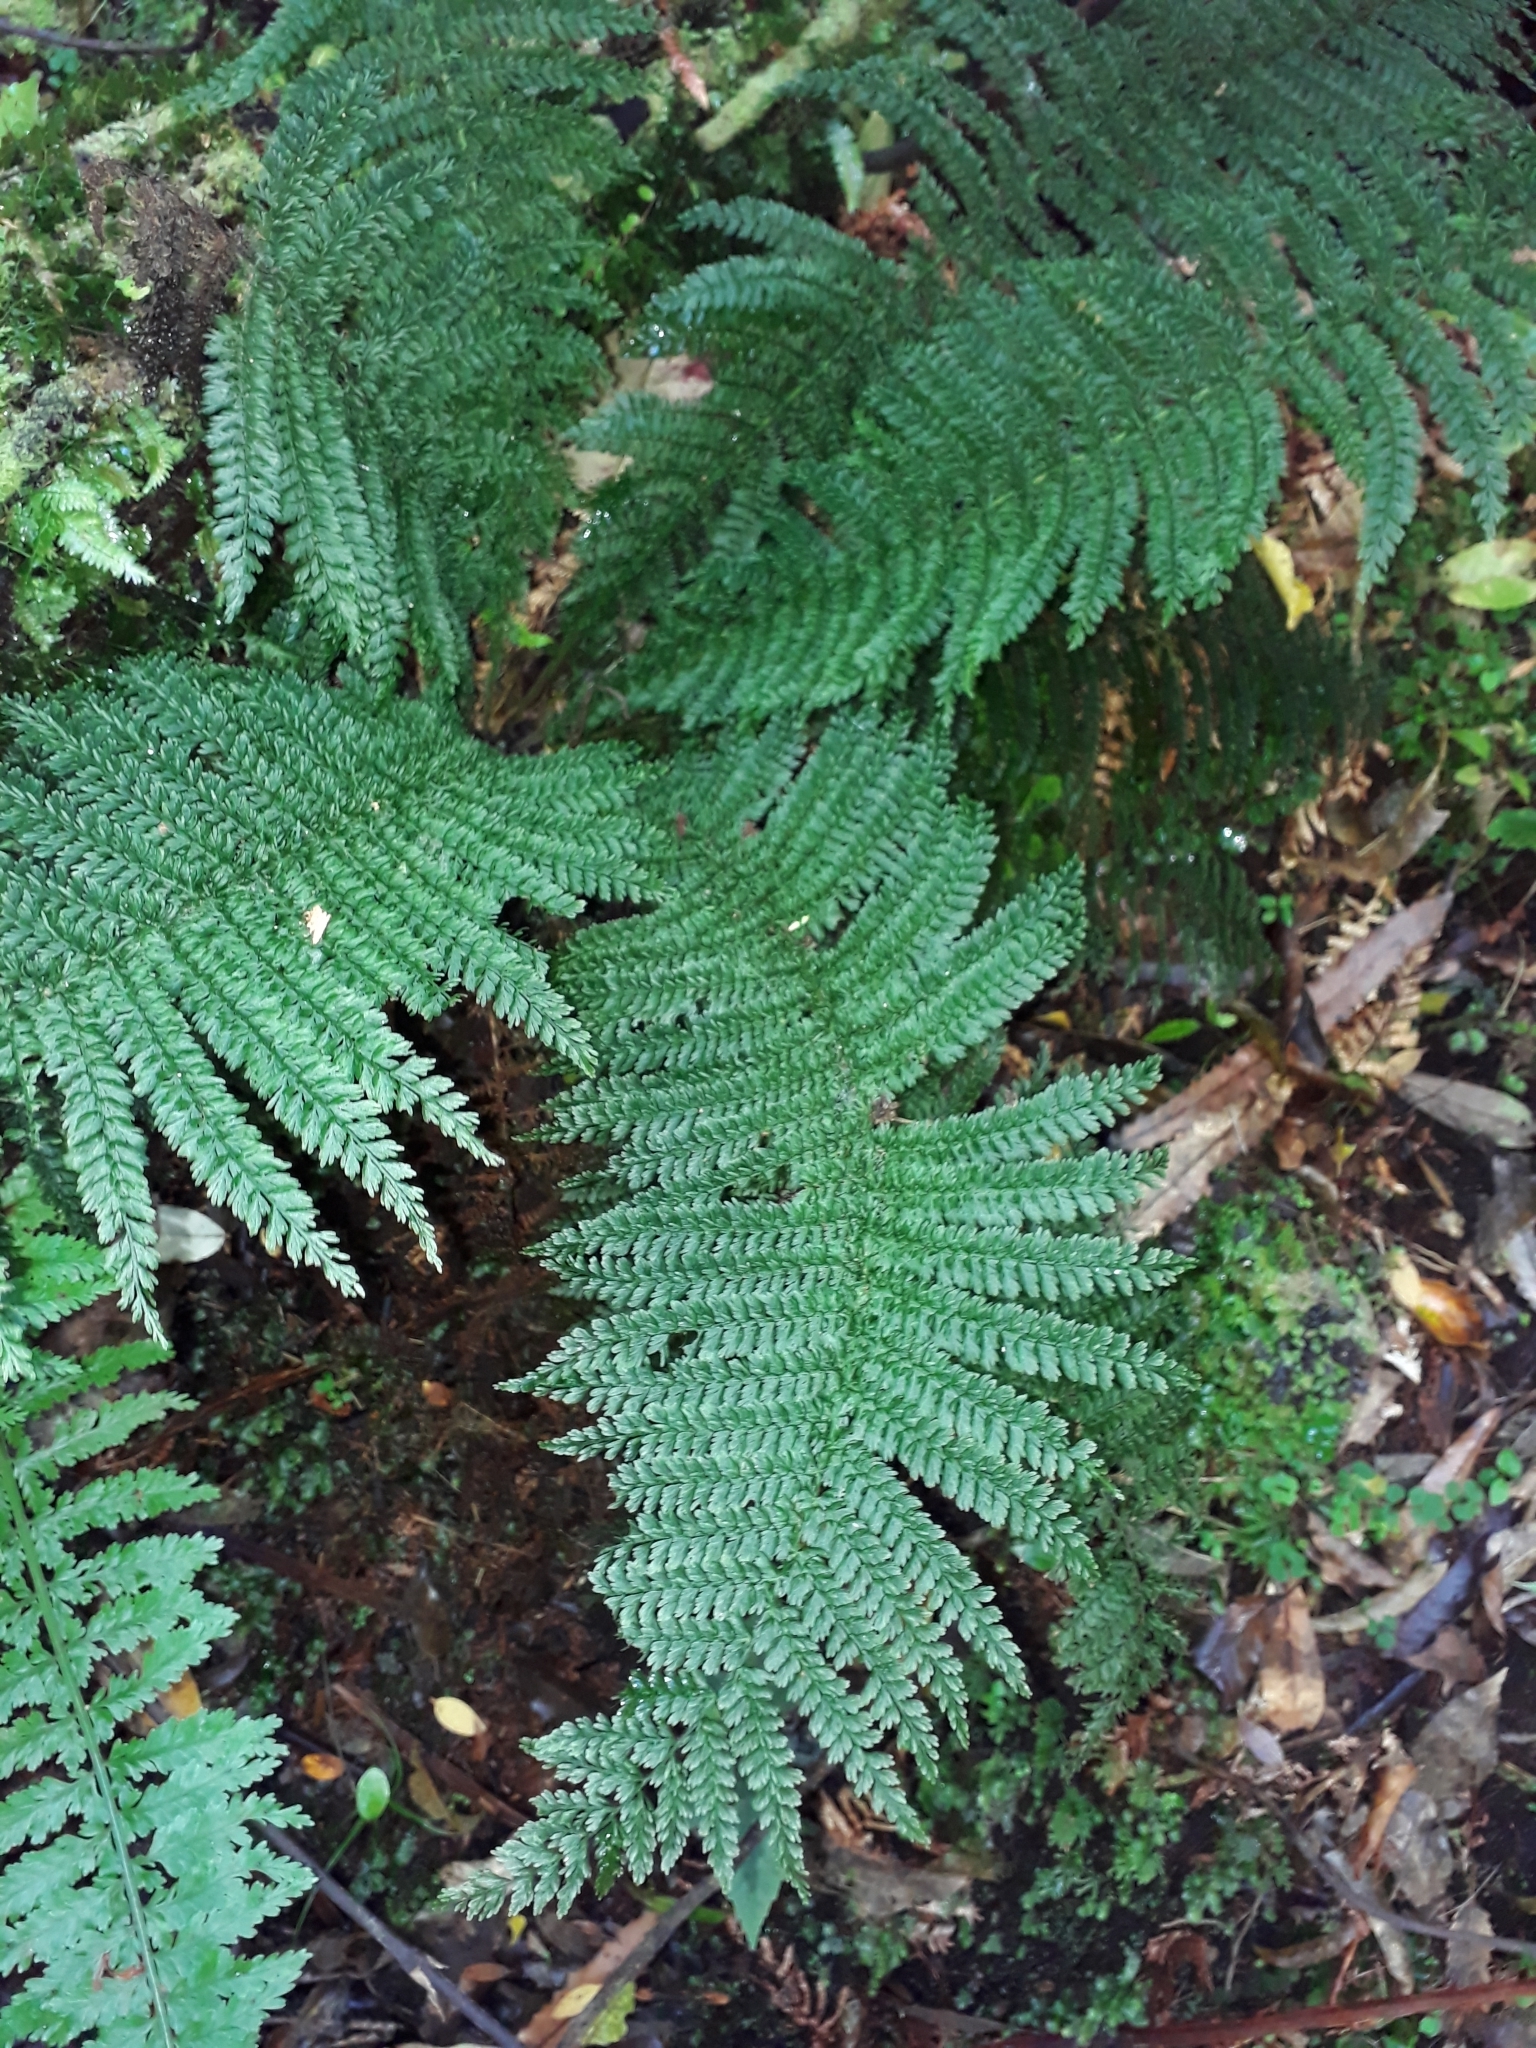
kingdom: Plantae
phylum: Tracheophyta
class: Polypodiopsida
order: Osmundales
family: Osmundaceae
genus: Leptopteris
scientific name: Leptopteris superba
